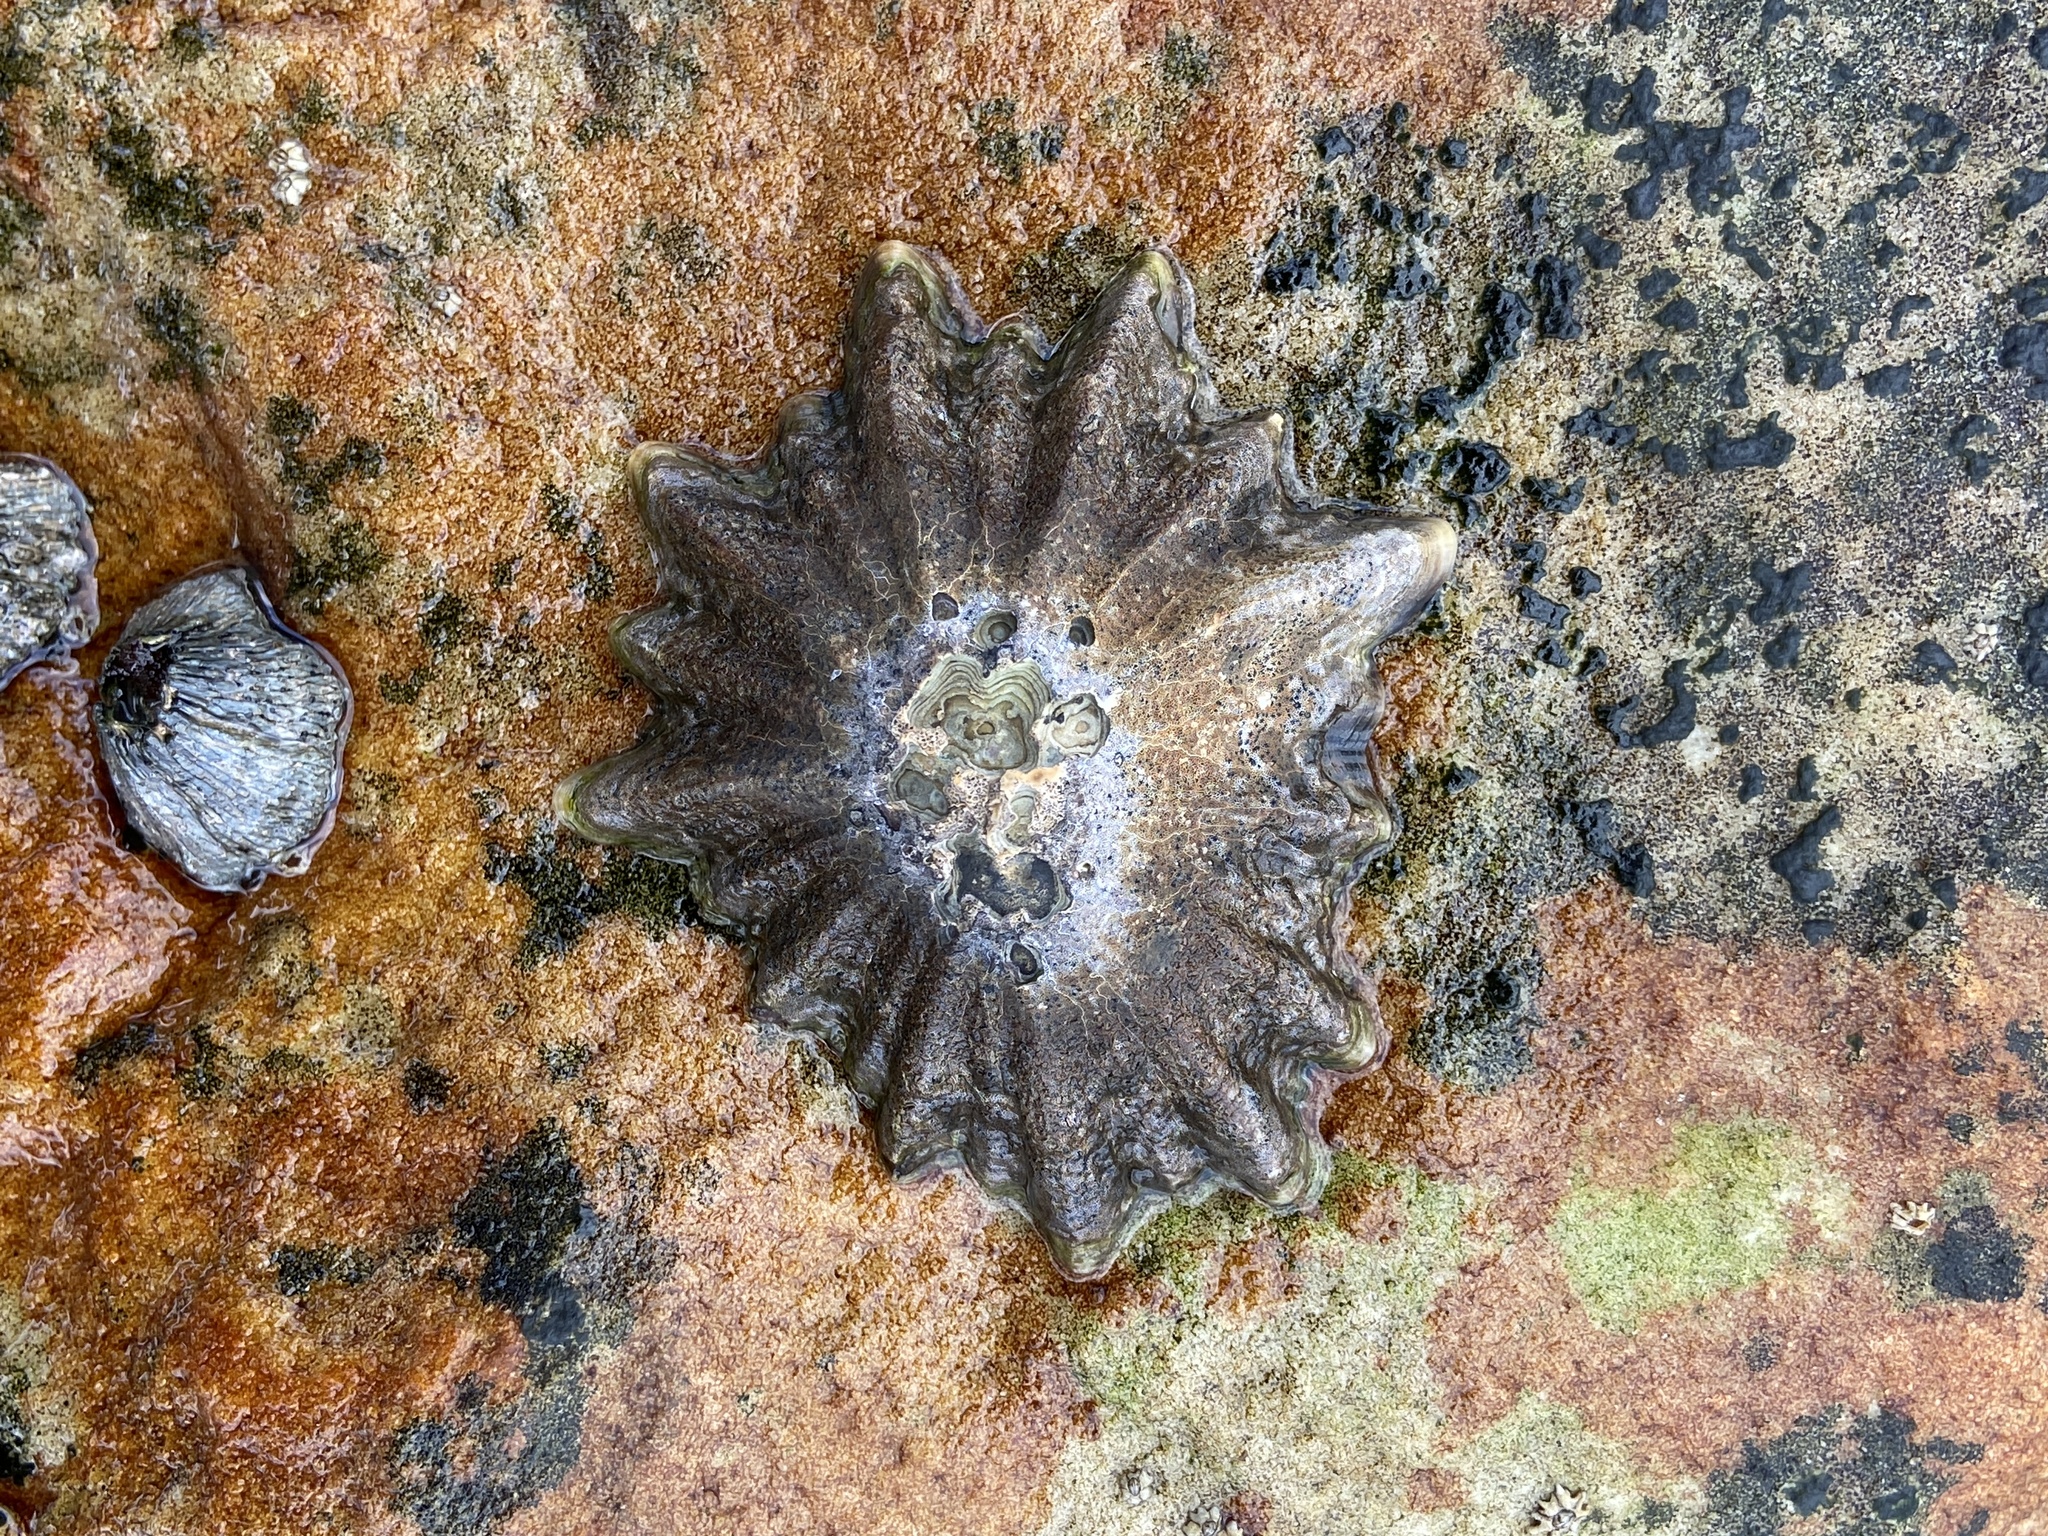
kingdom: Animalia
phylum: Mollusca
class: Gastropoda
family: Patellidae
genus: Scutellastra
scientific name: Scutellastra longicosta
